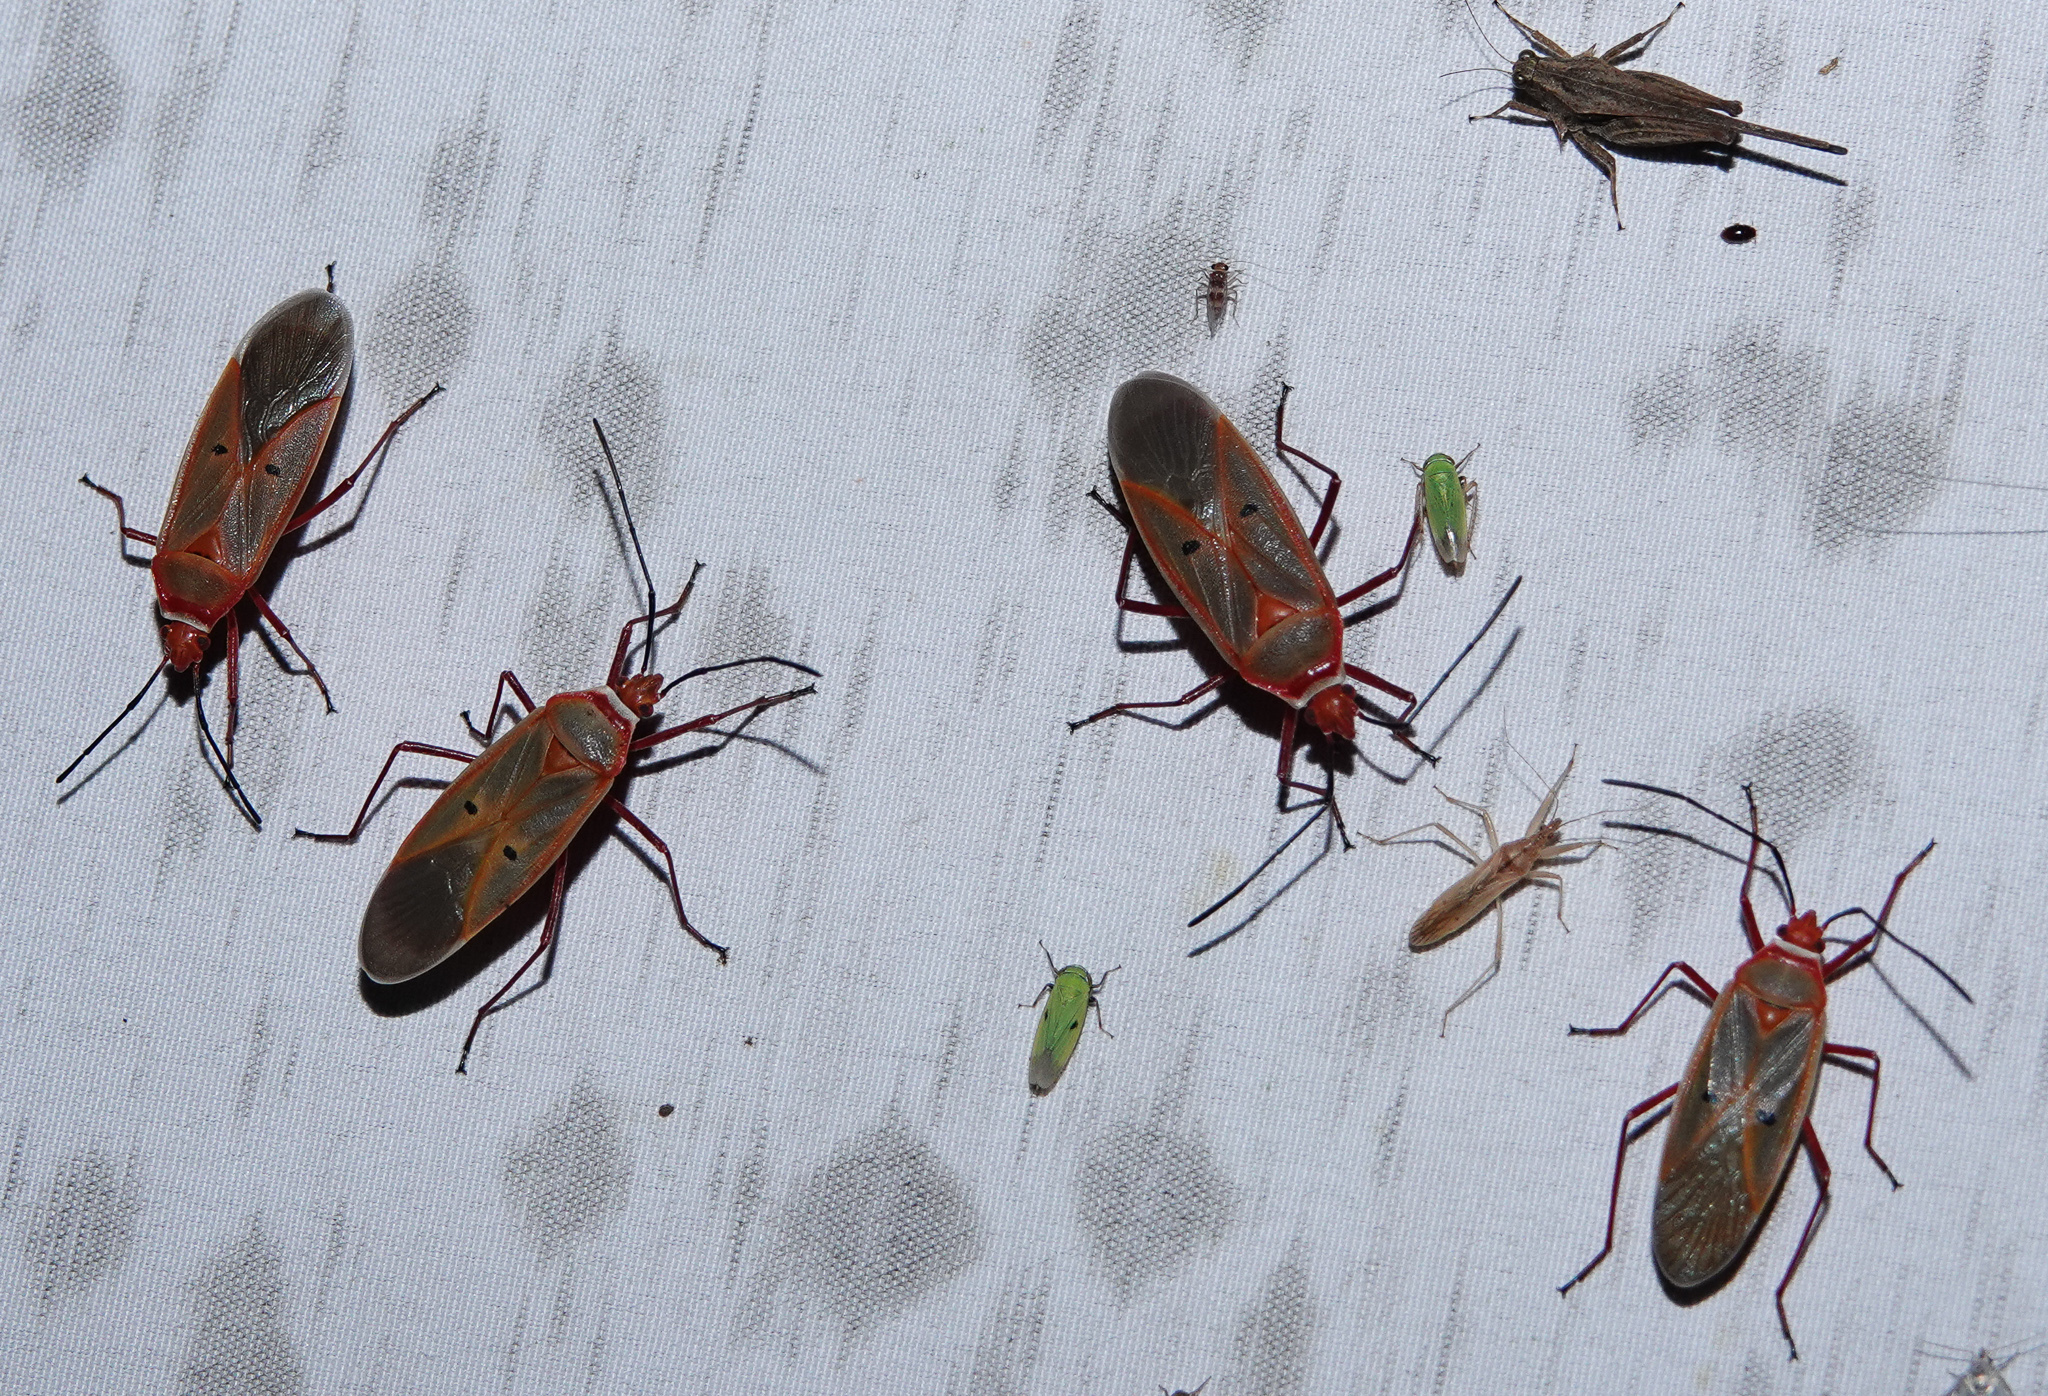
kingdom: Animalia
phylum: Arthropoda
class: Insecta
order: Hemiptera
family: Pyrrhocoridae
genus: Dysdercus
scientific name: Dysdercus evanescens
